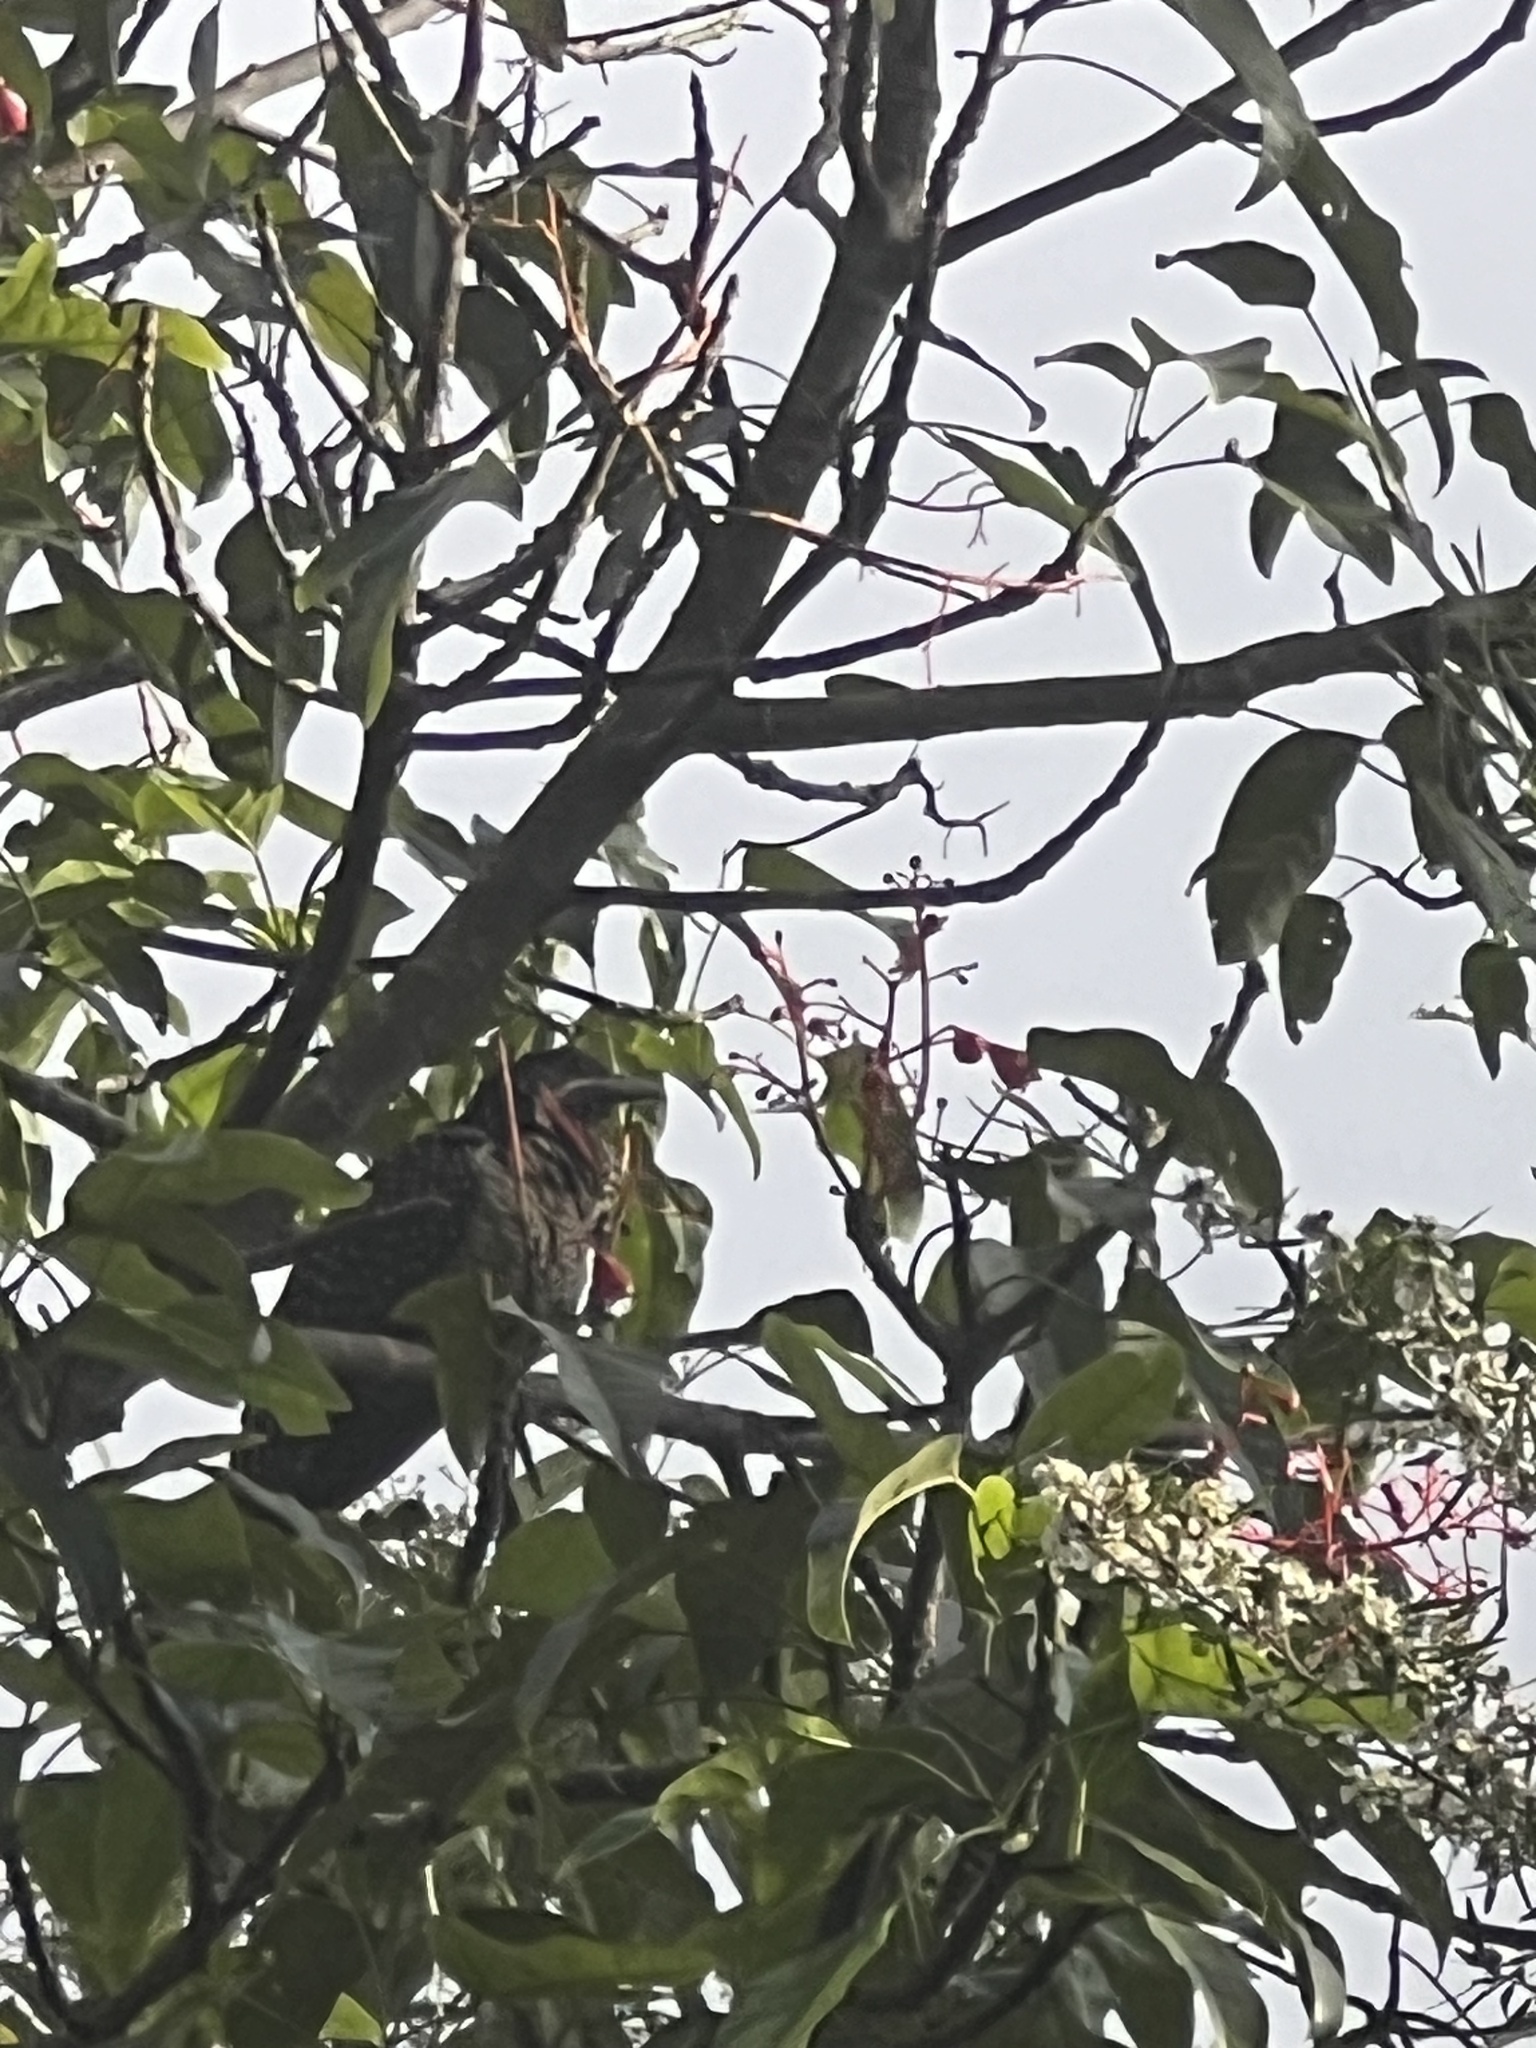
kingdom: Animalia
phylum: Chordata
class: Aves
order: Cuculiformes
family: Cuculidae
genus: Eudynamys
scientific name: Eudynamys orientalis
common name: Pacific koel
